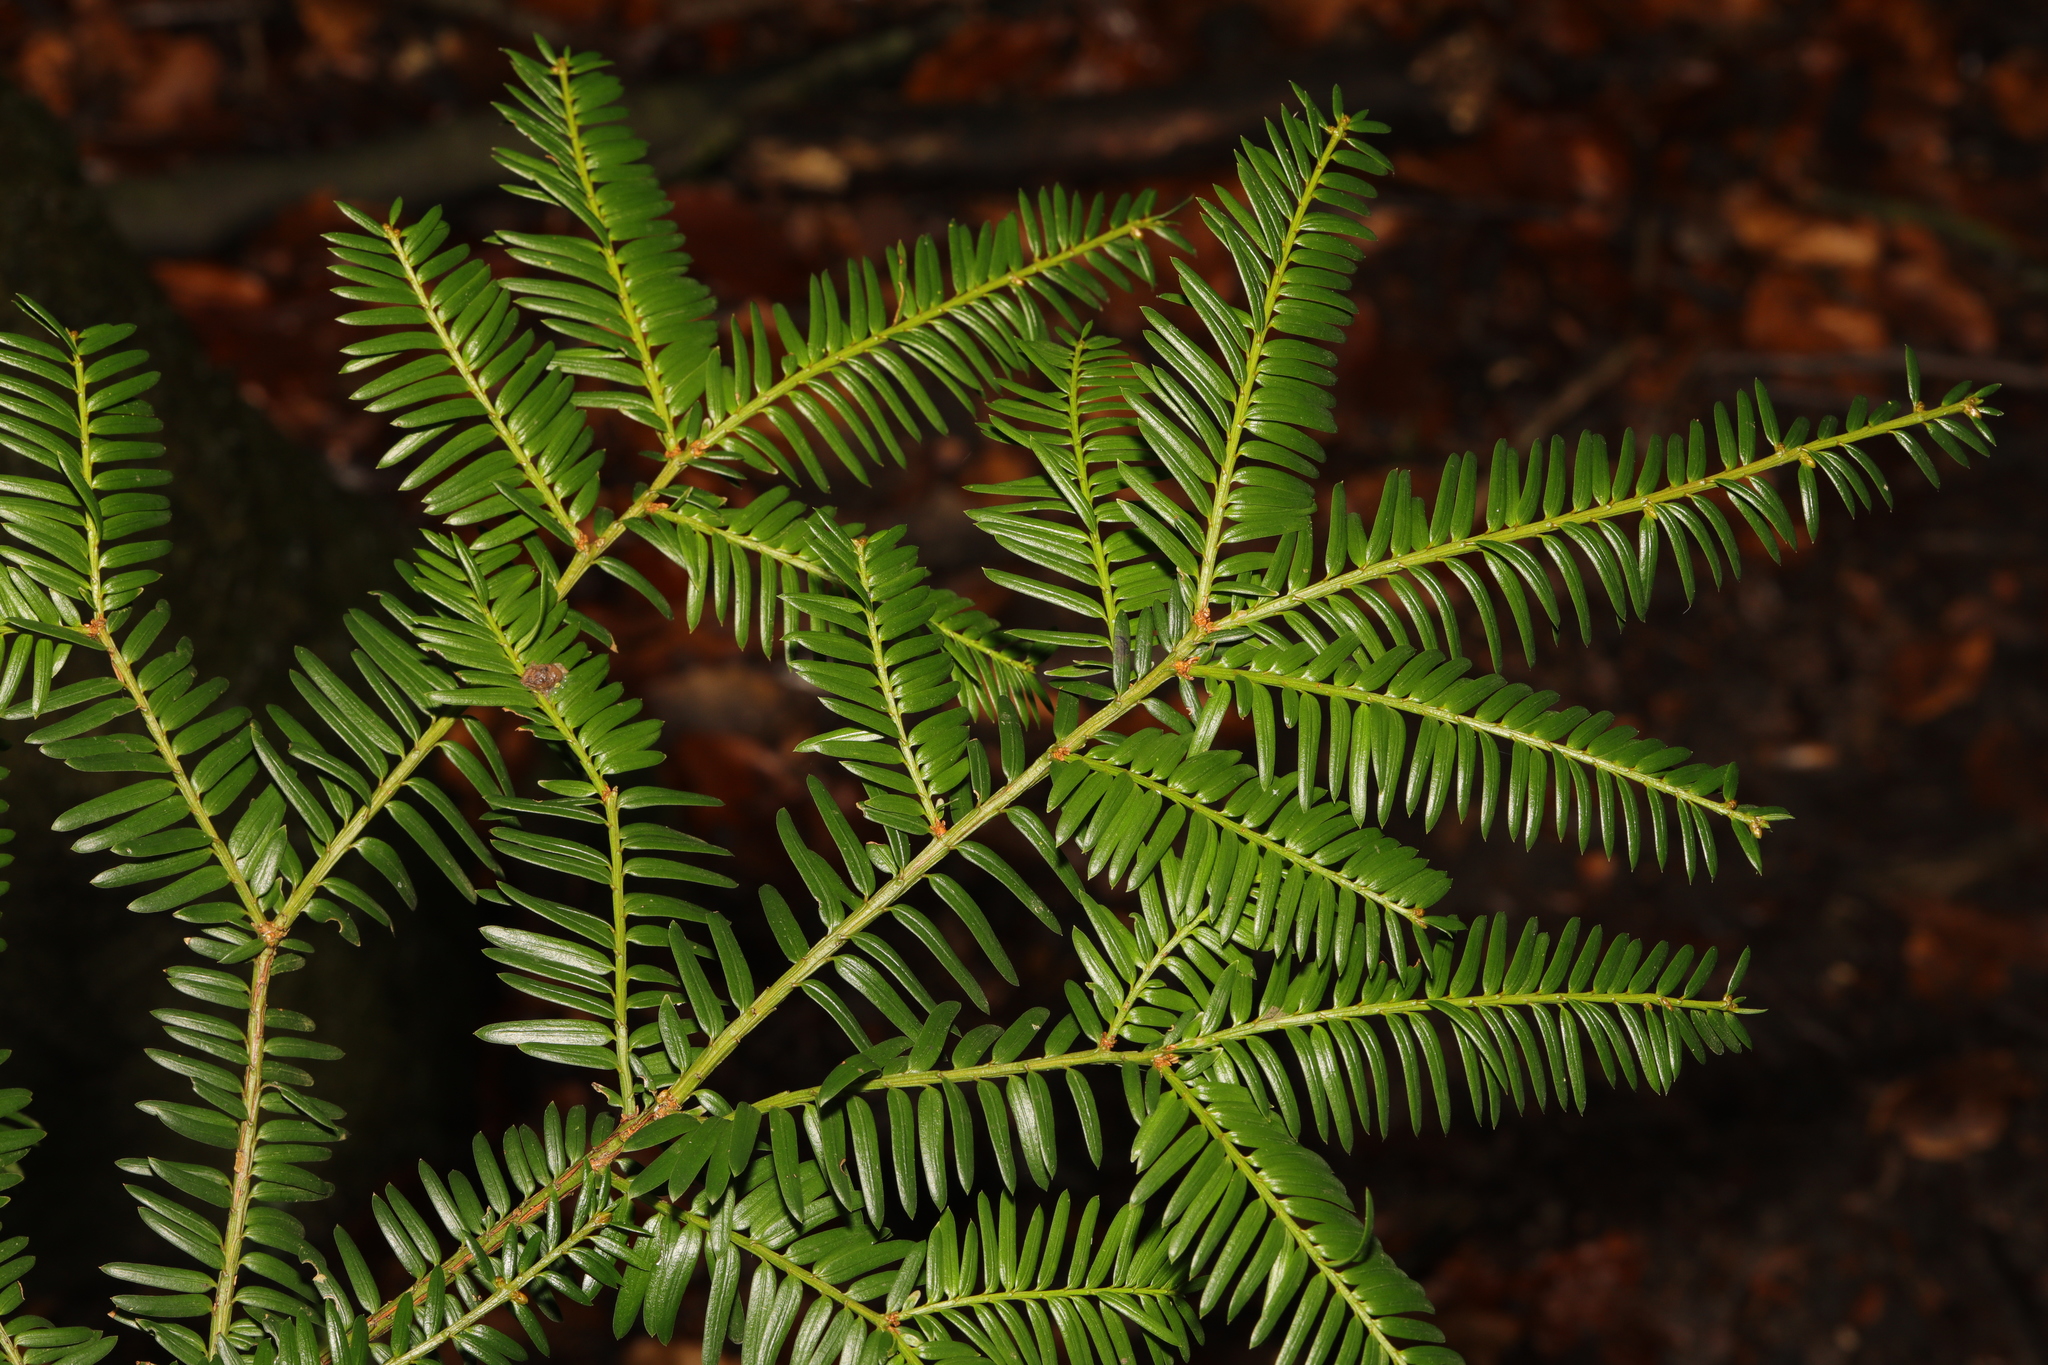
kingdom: Plantae
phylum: Tracheophyta
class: Pinopsida
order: Pinales
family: Taxaceae
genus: Taxus
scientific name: Taxus baccata
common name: Yew
